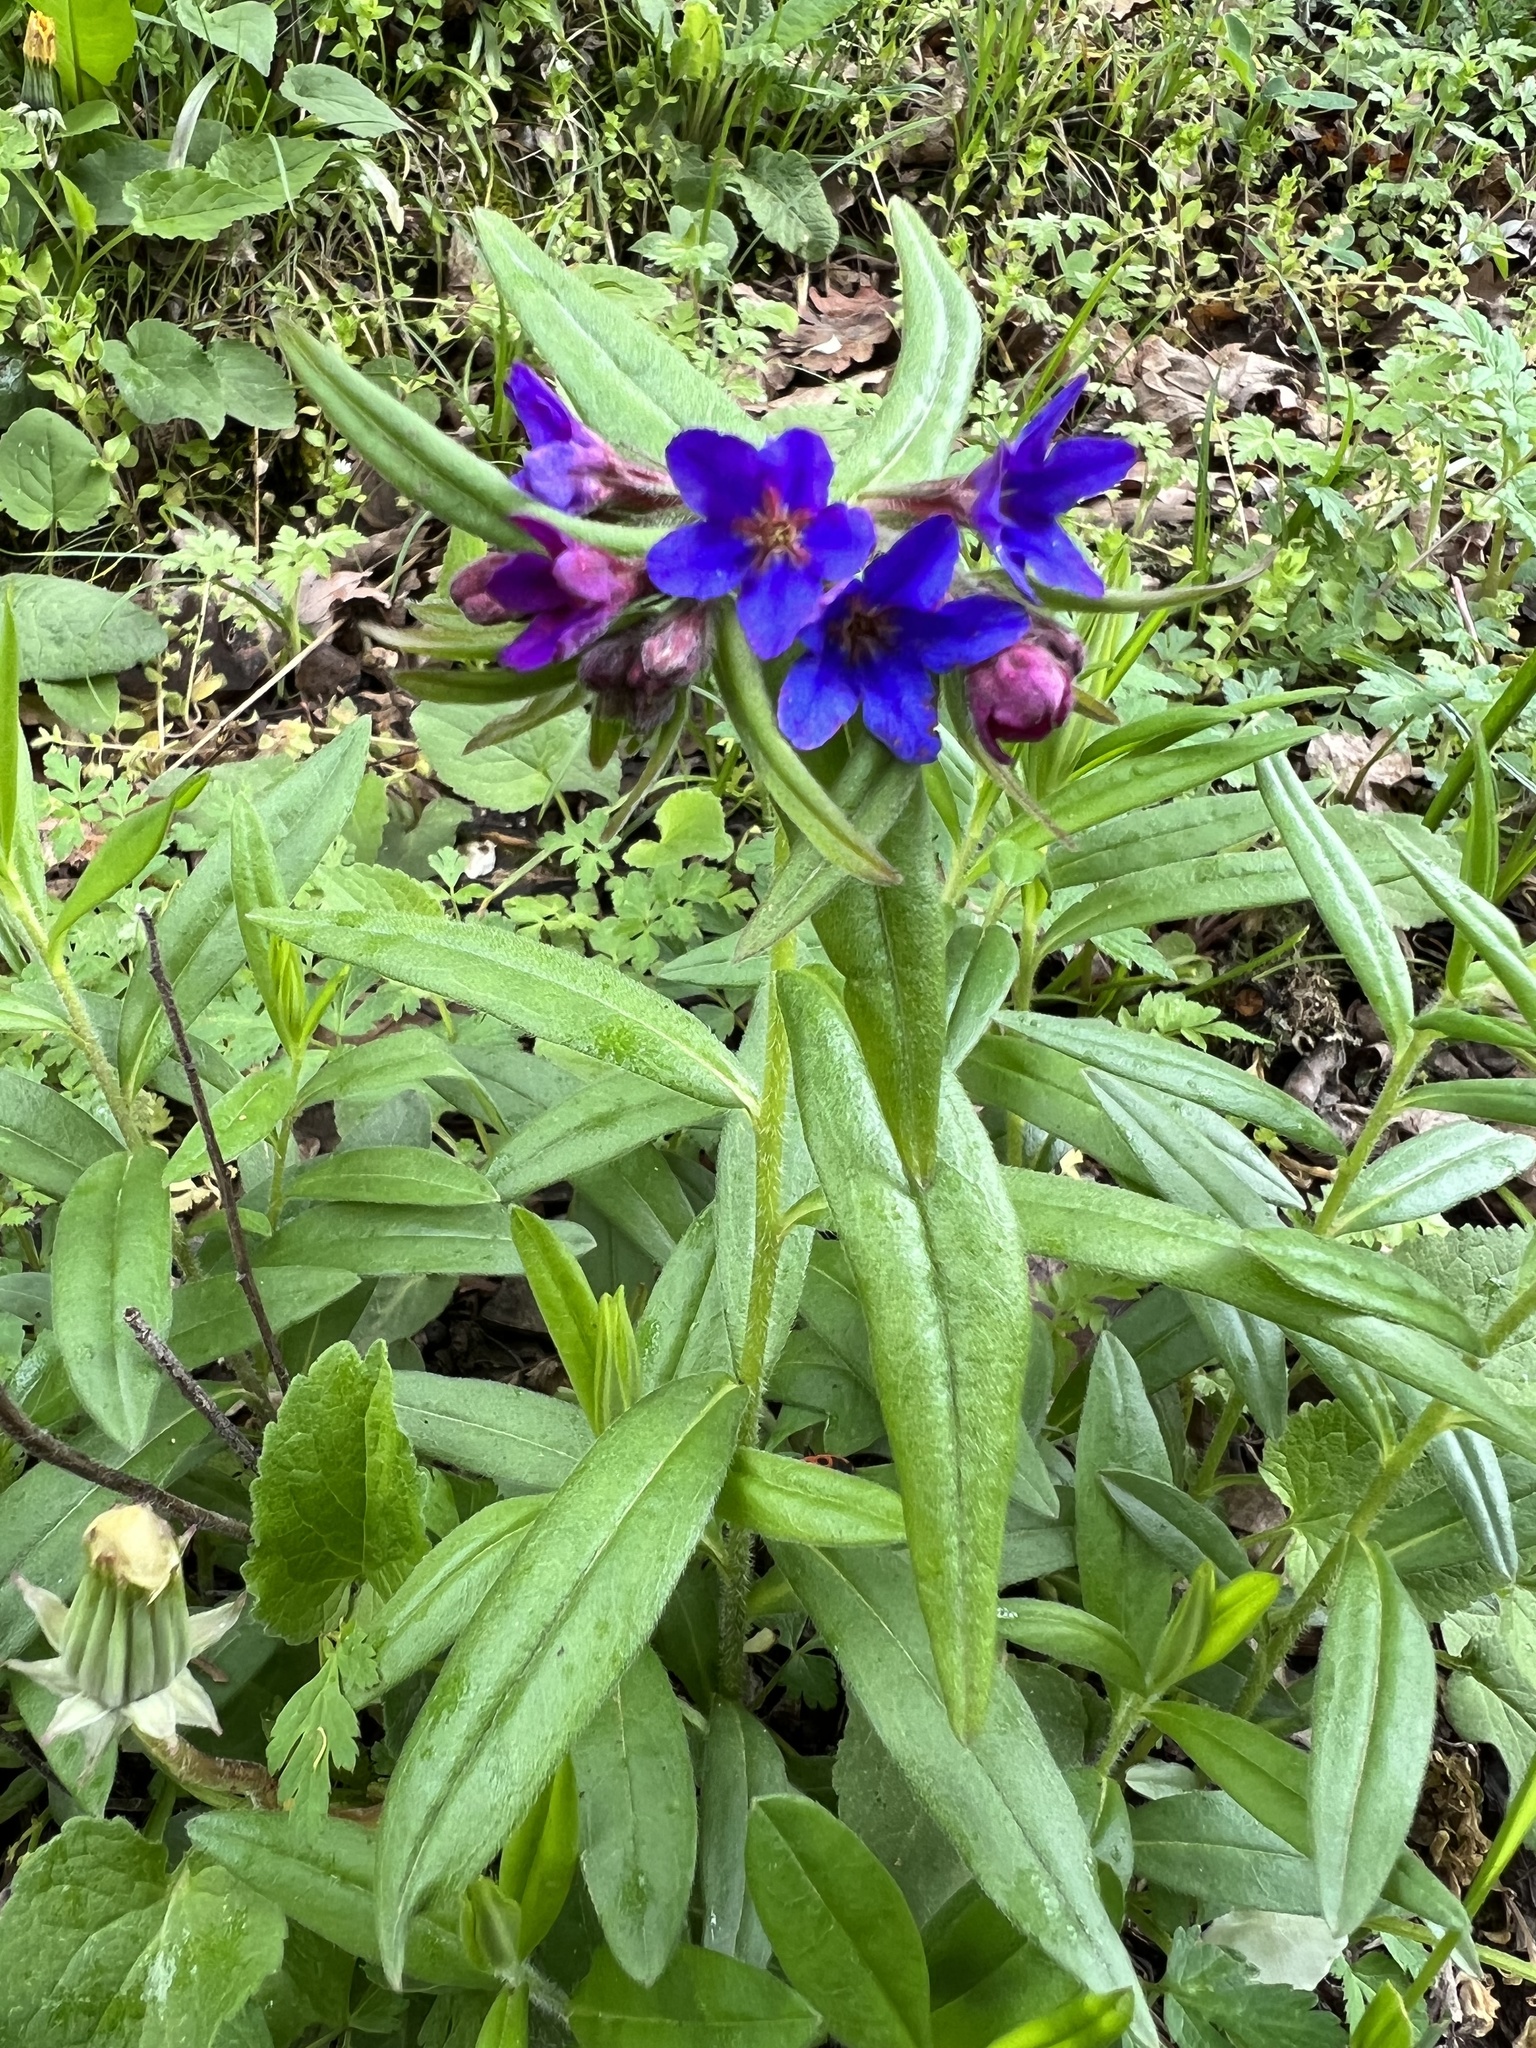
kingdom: Plantae
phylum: Tracheophyta
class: Magnoliopsida
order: Boraginales
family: Boraginaceae
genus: Aegonychon
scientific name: Aegonychon purpurocaeruleum
